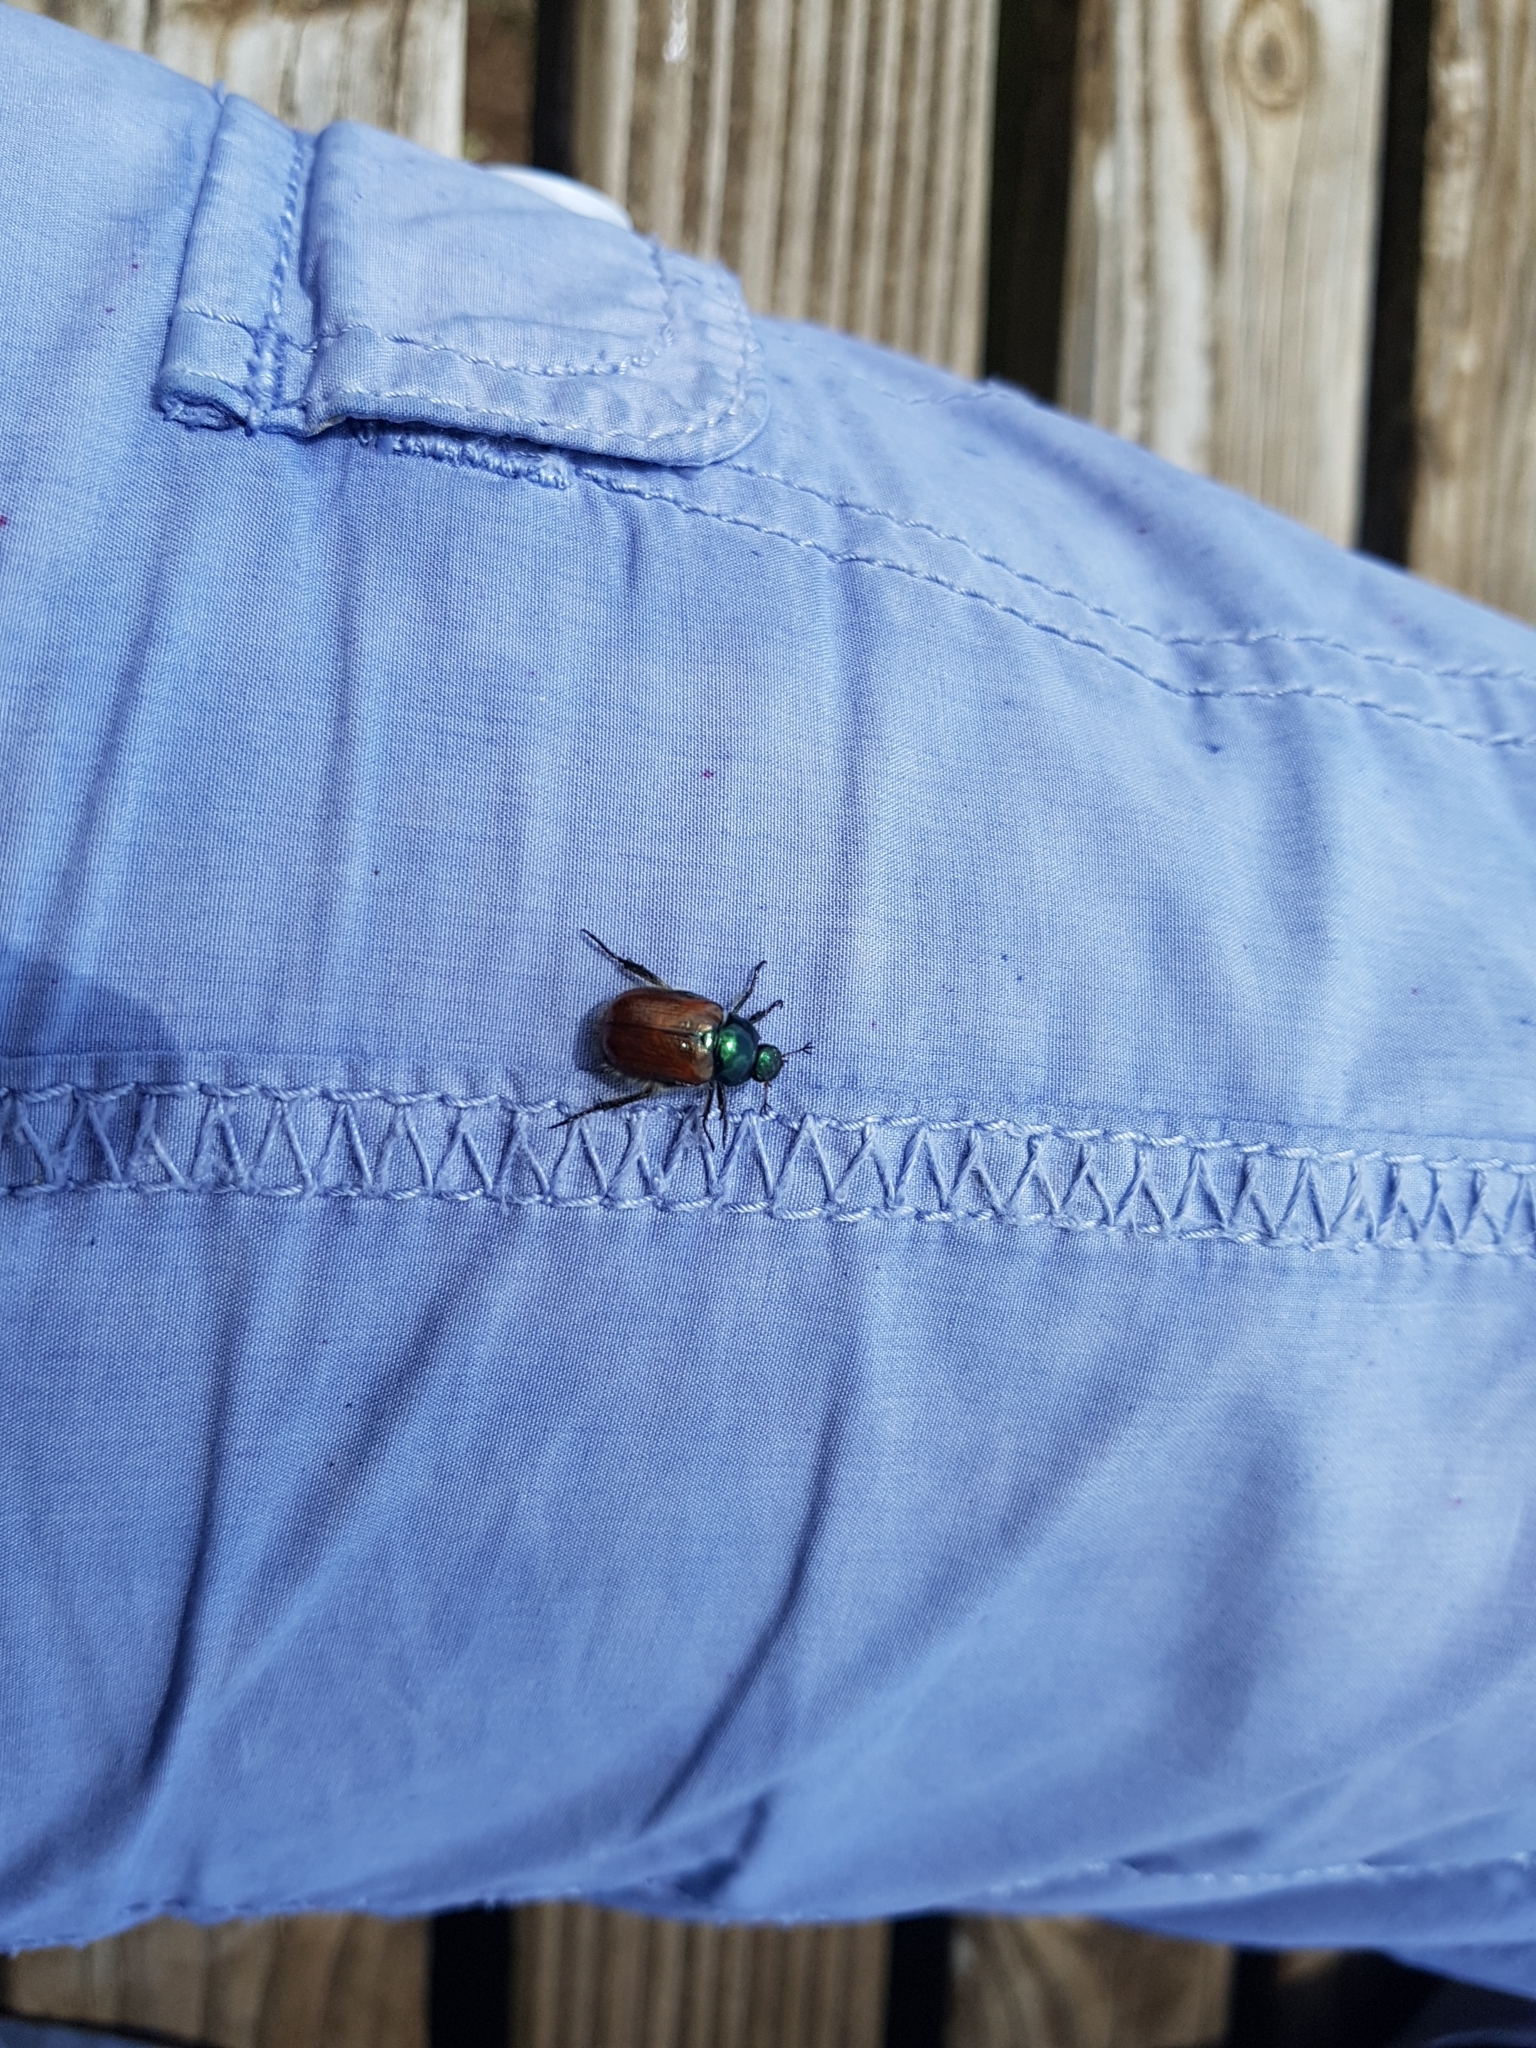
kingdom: Animalia
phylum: Arthropoda
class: Insecta
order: Coleoptera
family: Scarabaeidae
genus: Phyllopertha
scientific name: Phyllopertha horticola
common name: Garden chafer
